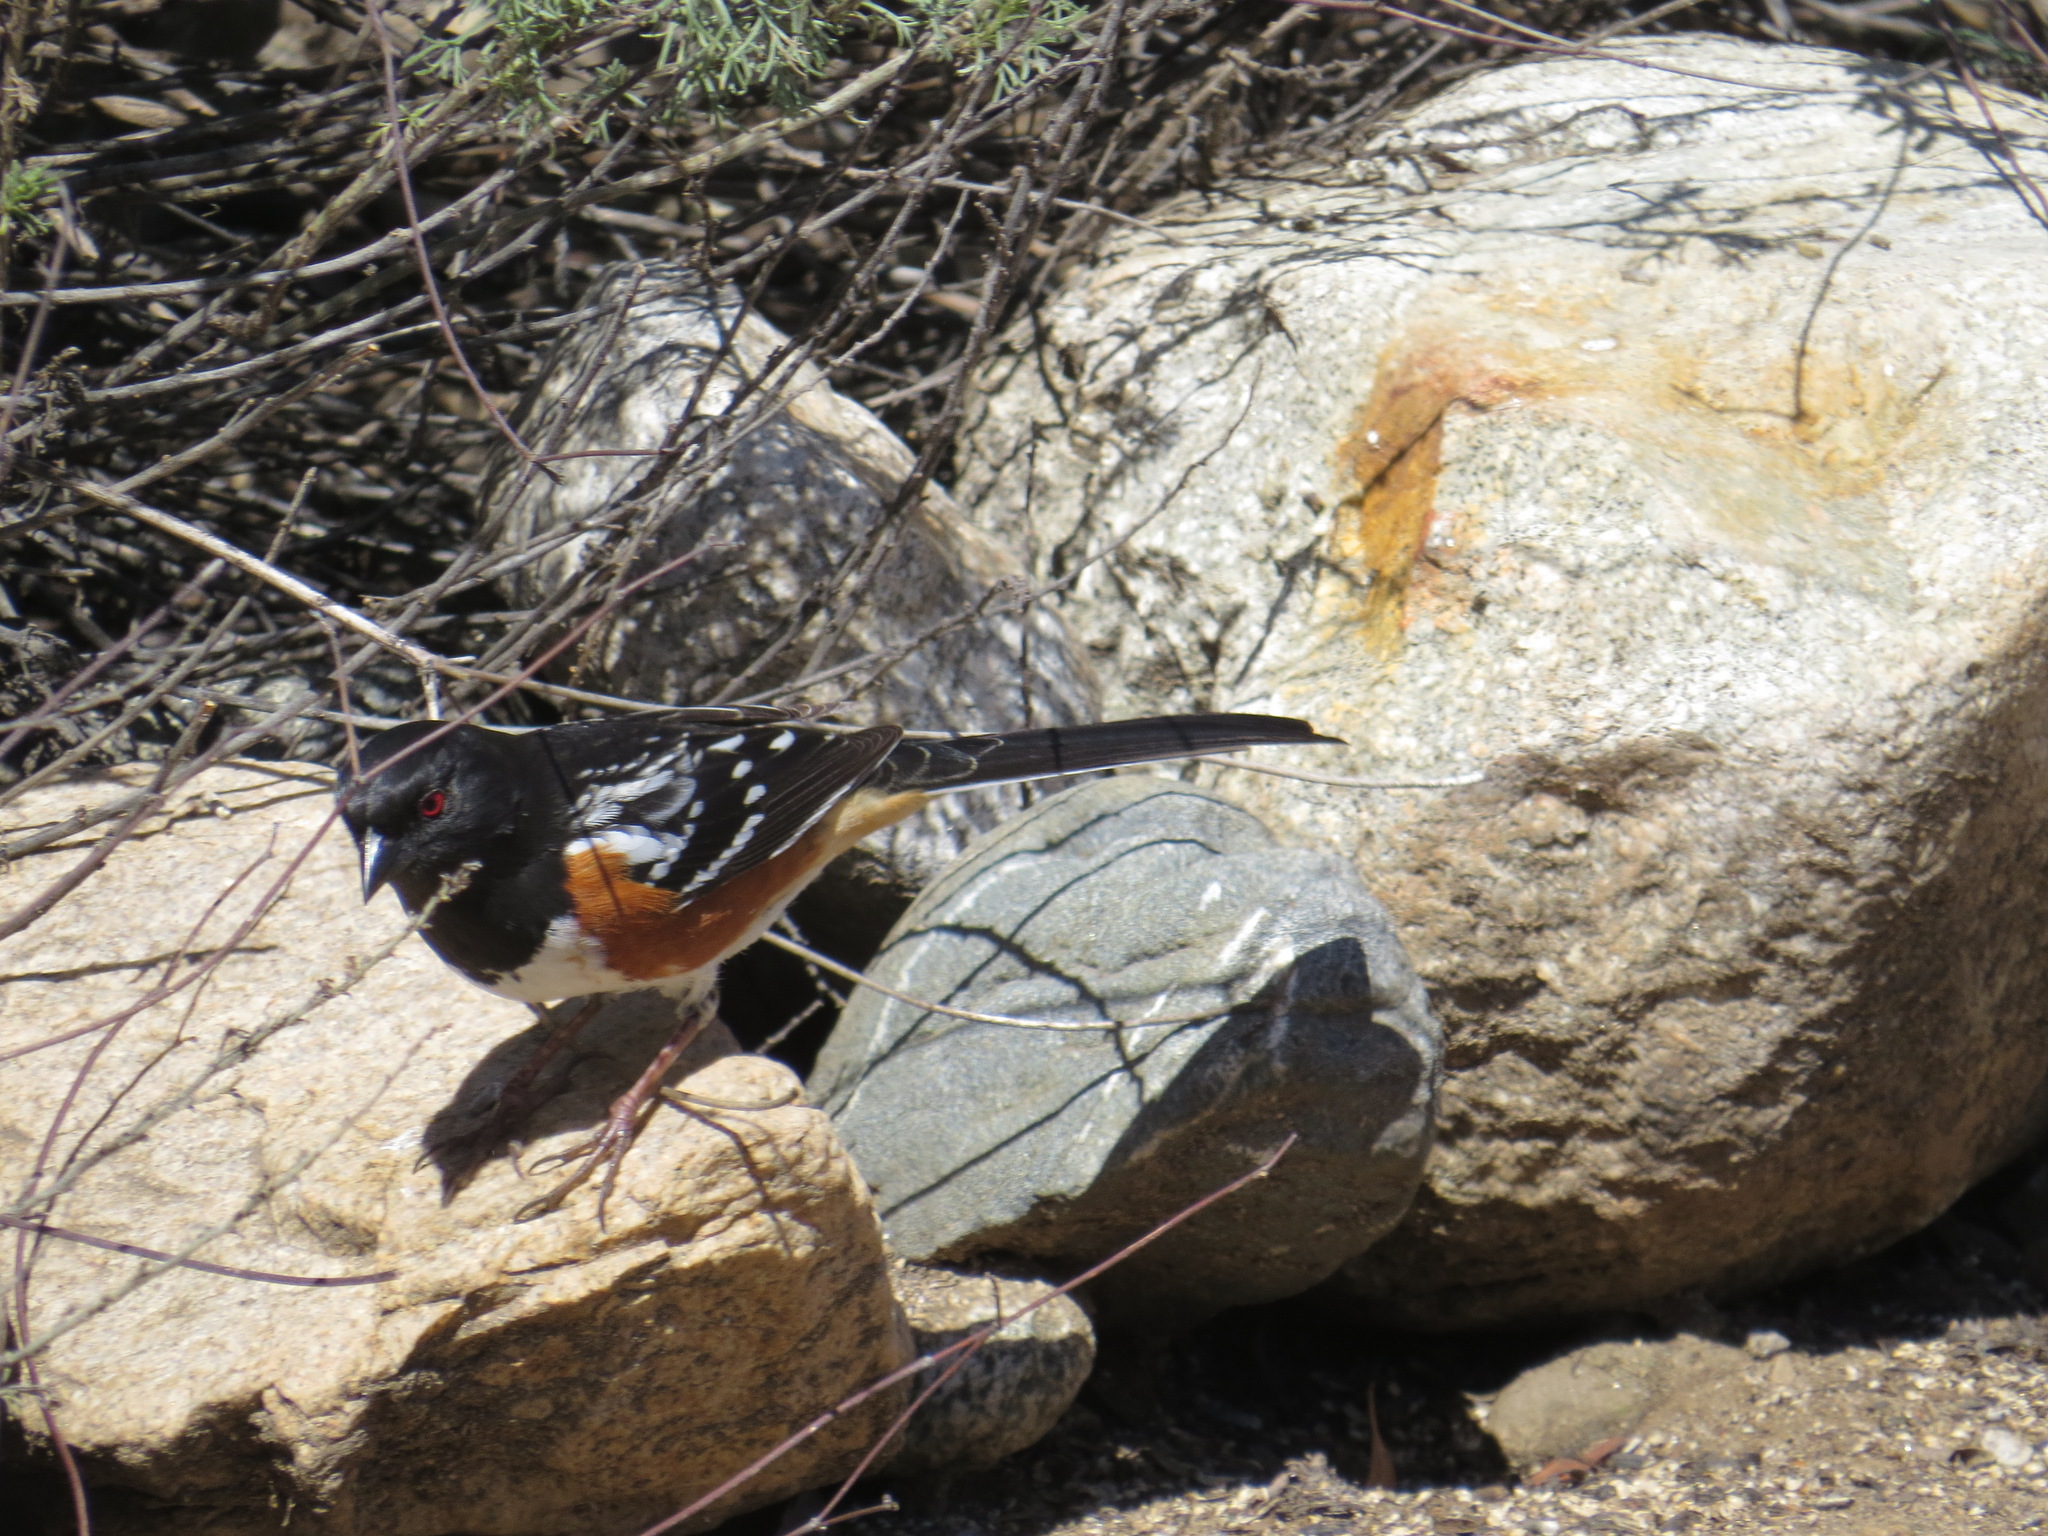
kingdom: Animalia
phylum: Chordata
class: Aves
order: Passeriformes
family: Passerellidae
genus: Pipilo
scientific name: Pipilo maculatus
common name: Spotted towhee
